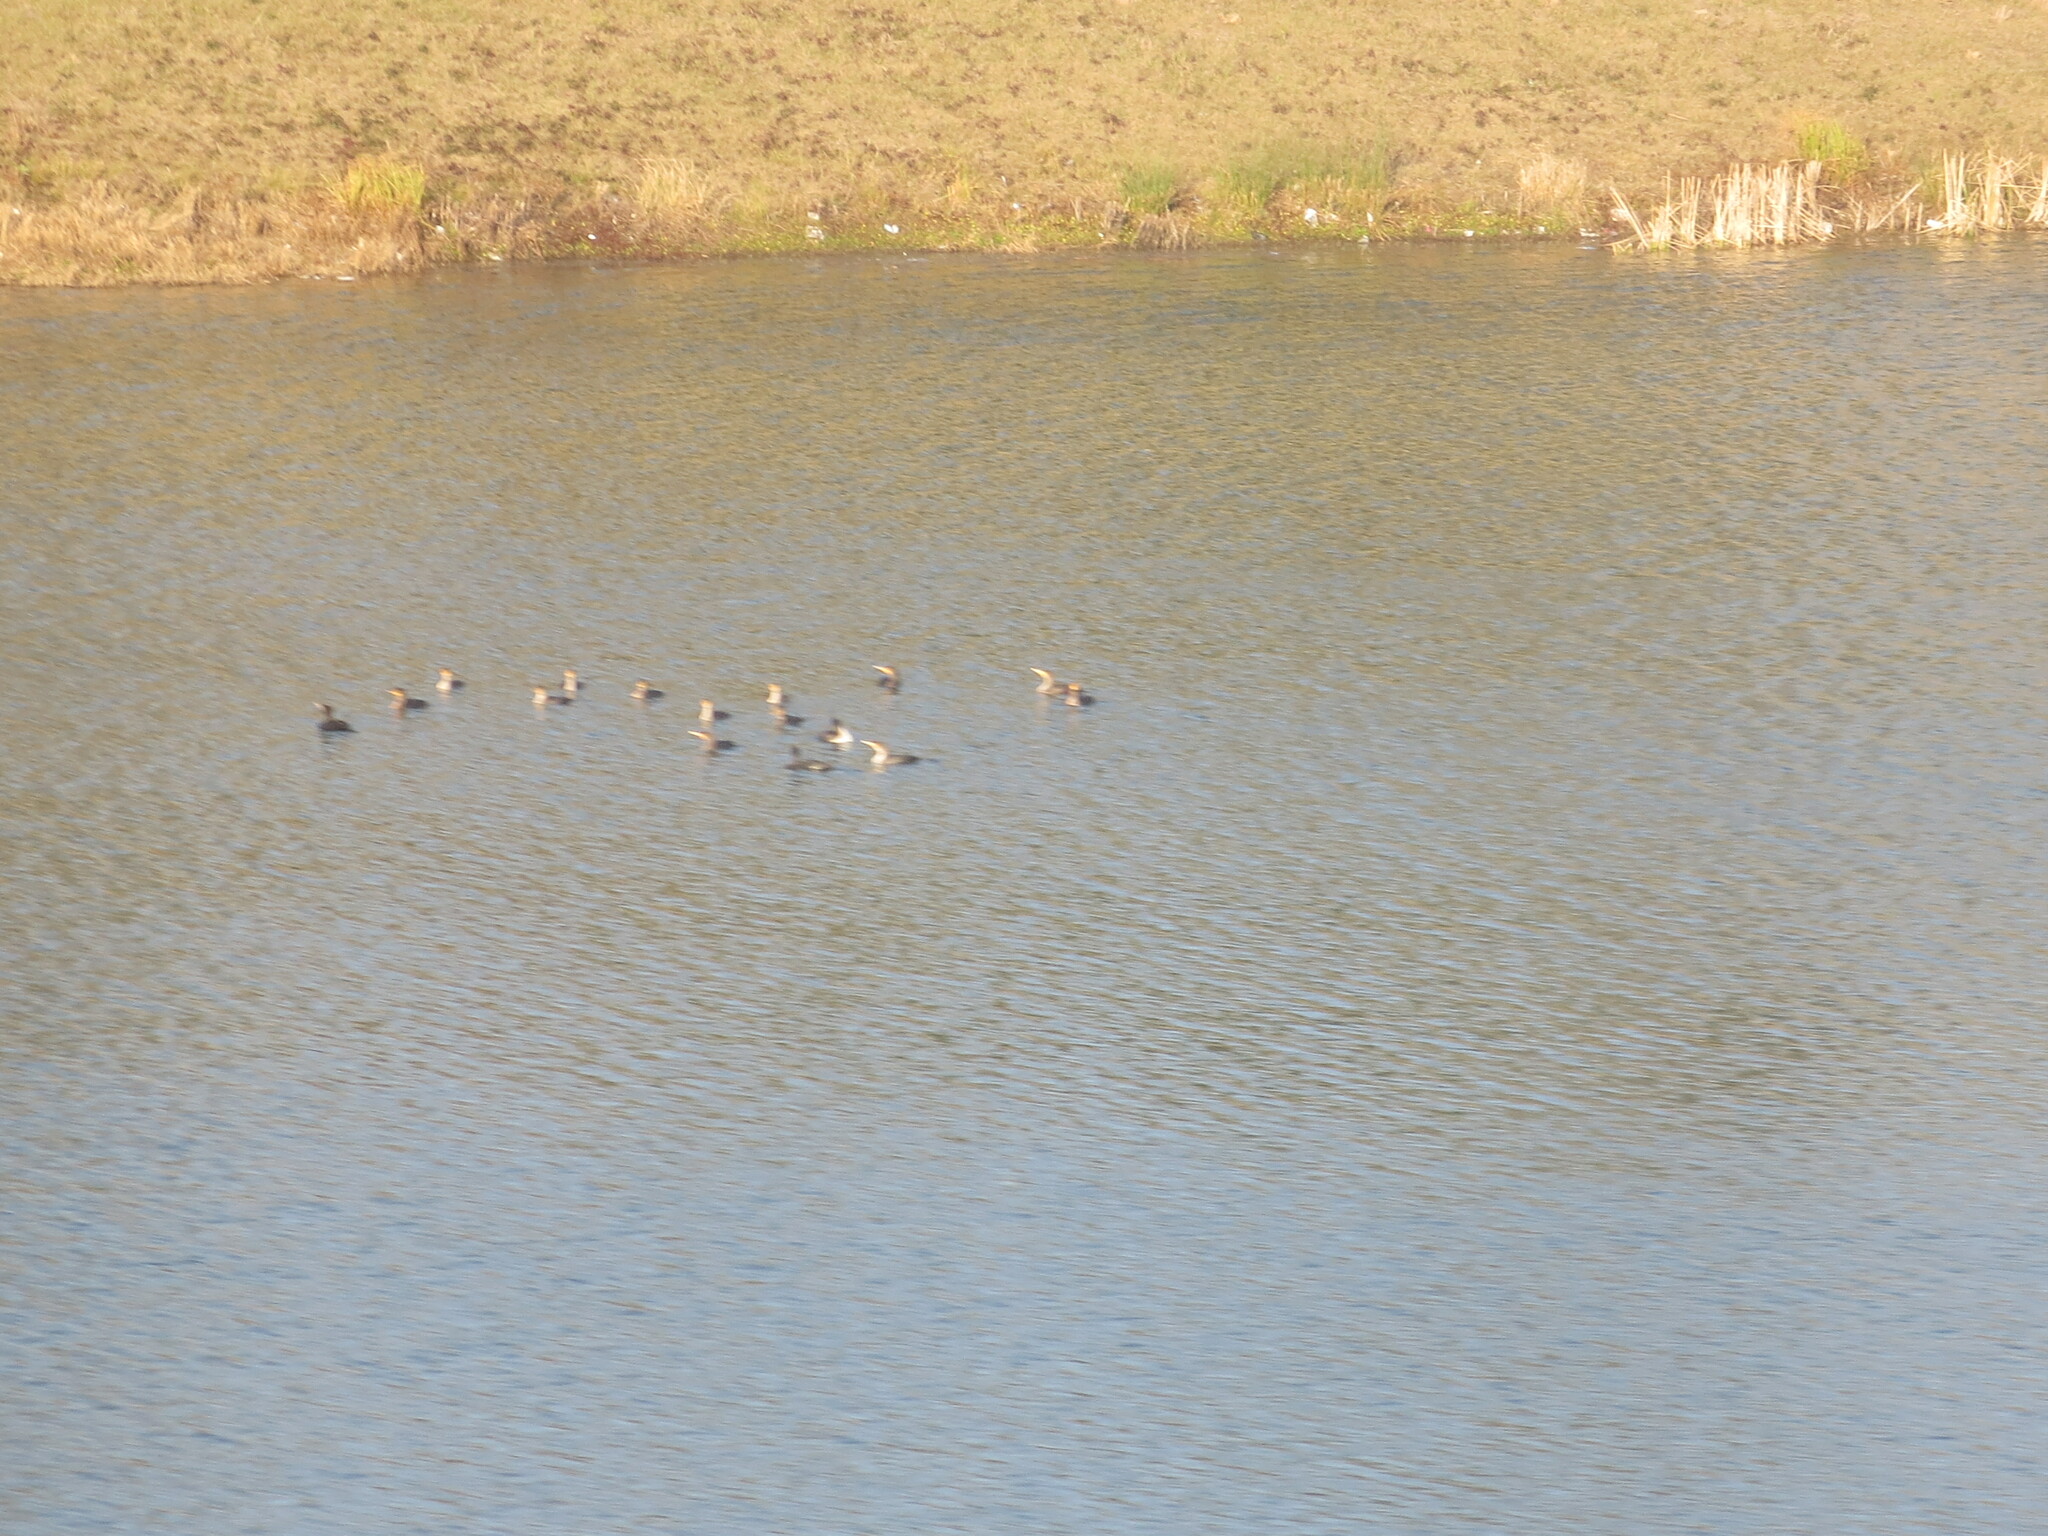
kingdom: Animalia
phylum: Chordata
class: Aves
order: Suliformes
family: Phalacrocoracidae
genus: Phalacrocorax
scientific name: Phalacrocorax auritus
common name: Double-crested cormorant
